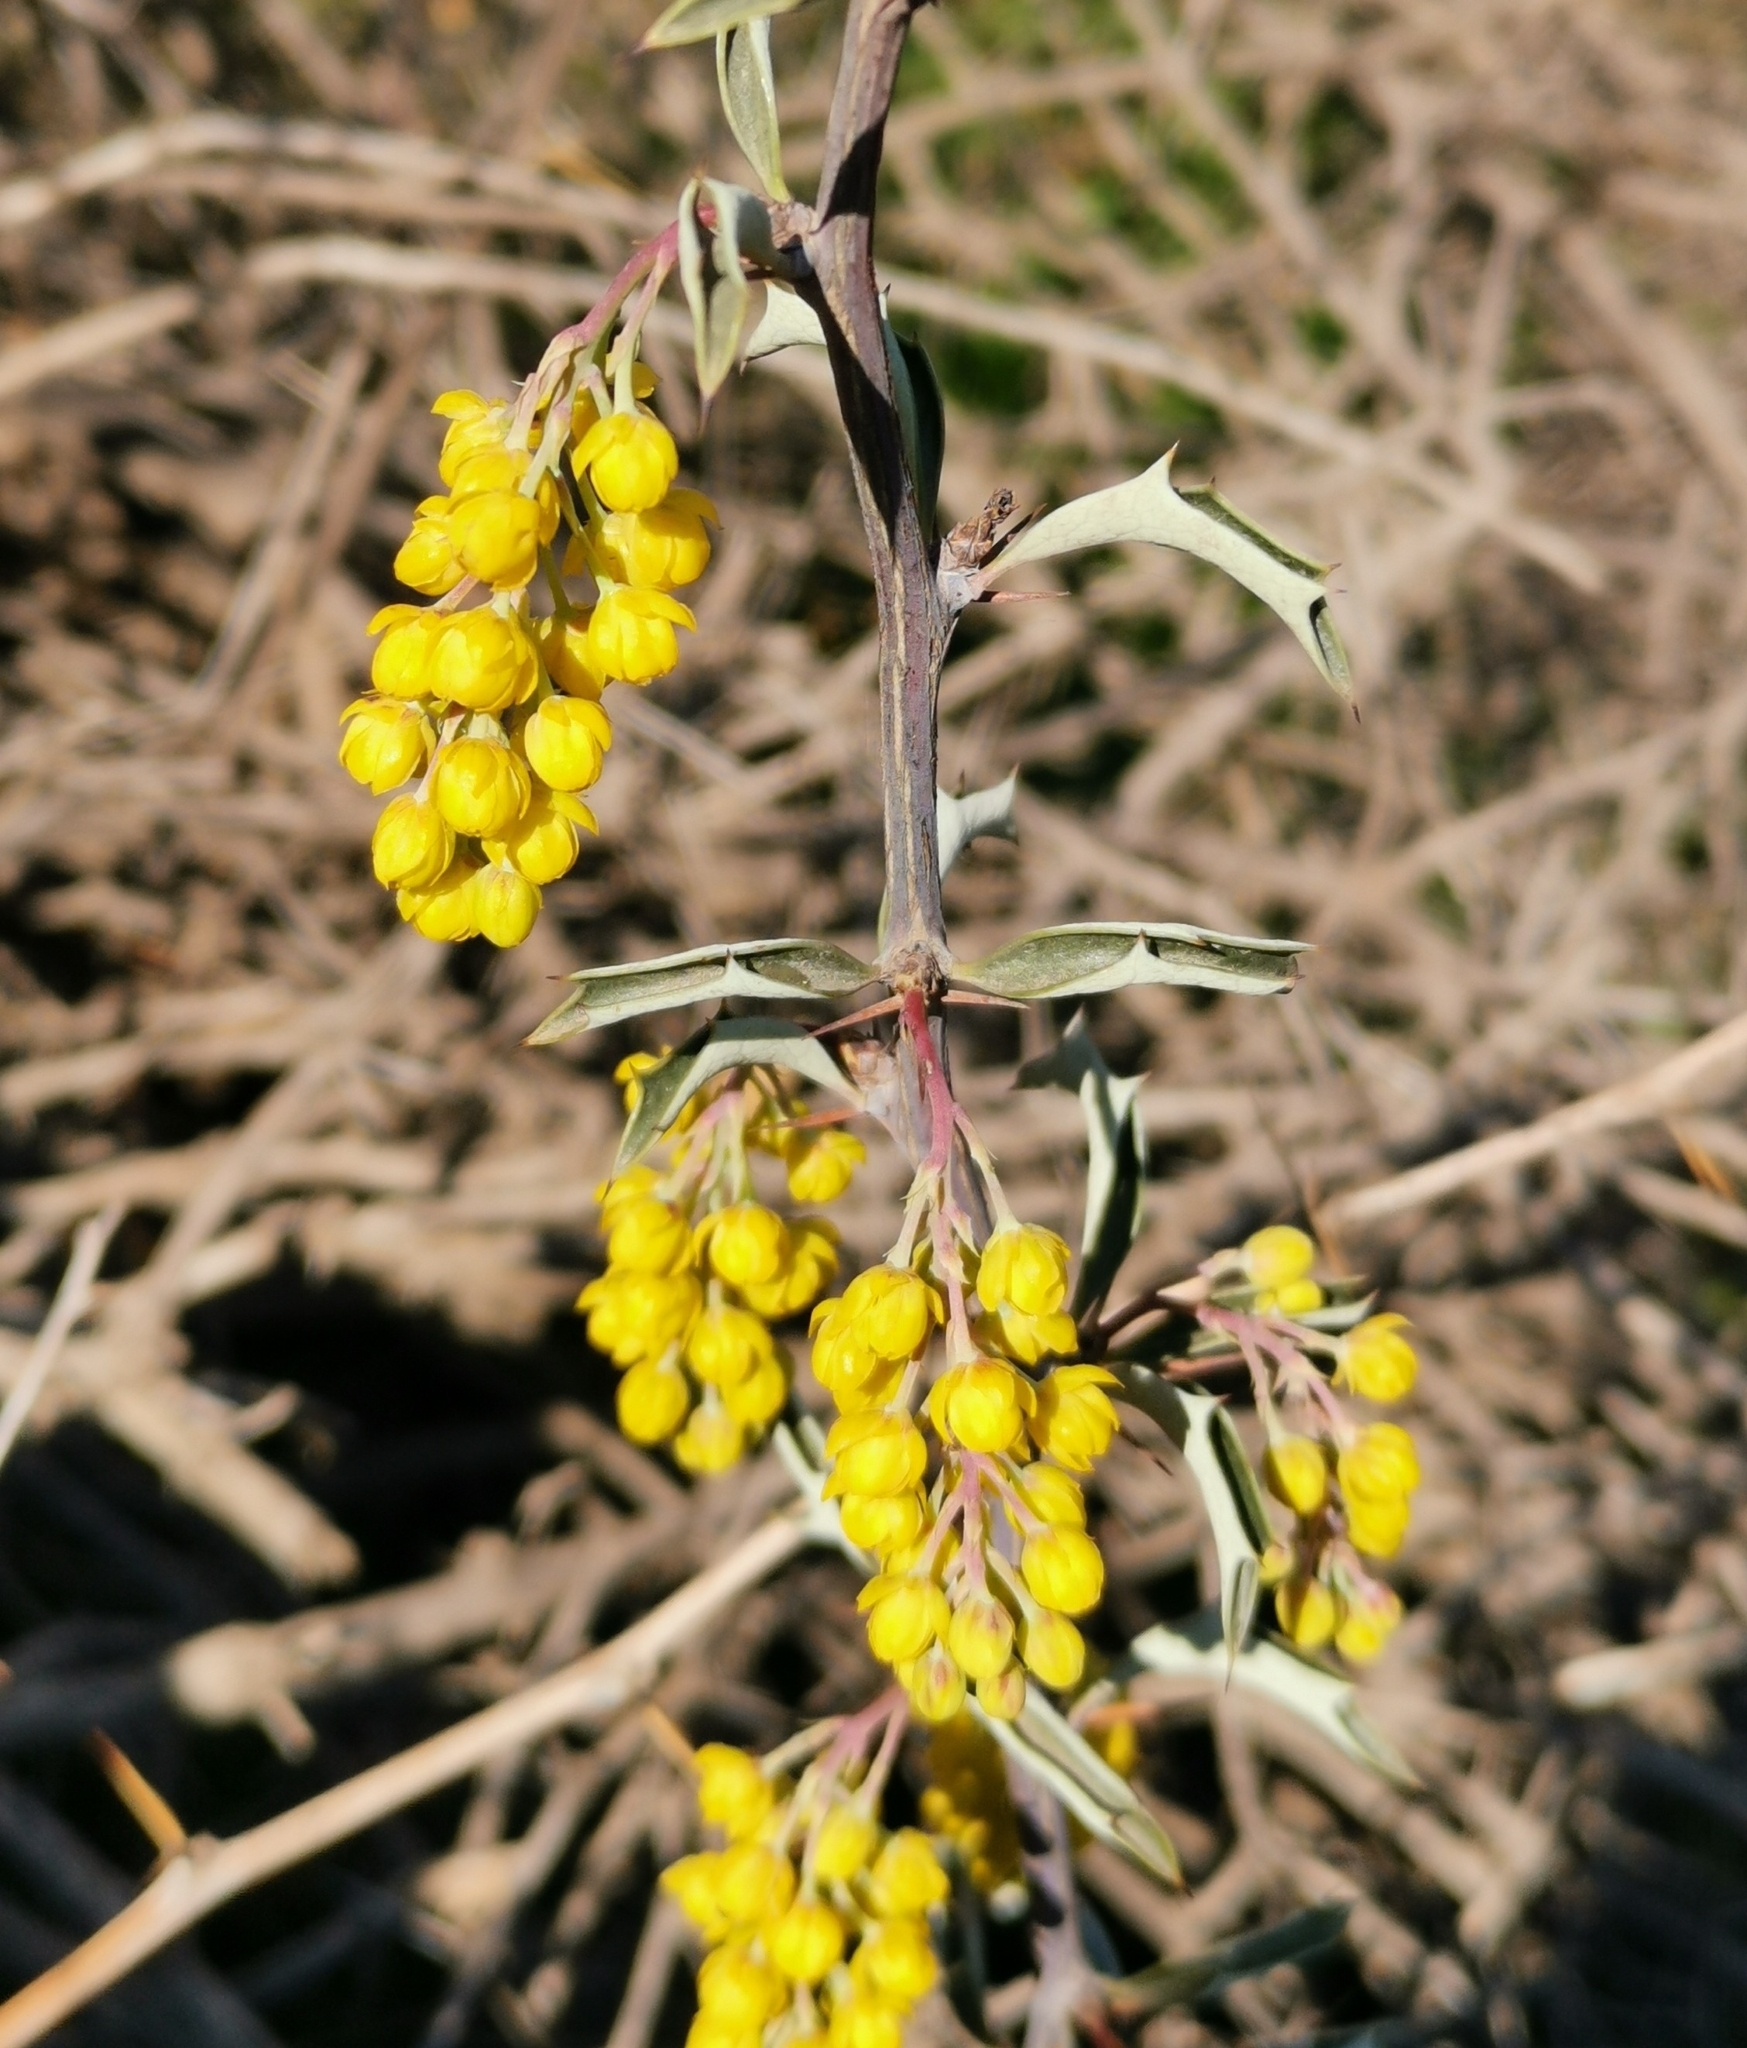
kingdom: Plantae
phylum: Tracheophyta
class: Magnoliopsida
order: Ranunculales
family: Berberidaceae
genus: Berberis
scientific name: Berberis chilensis
